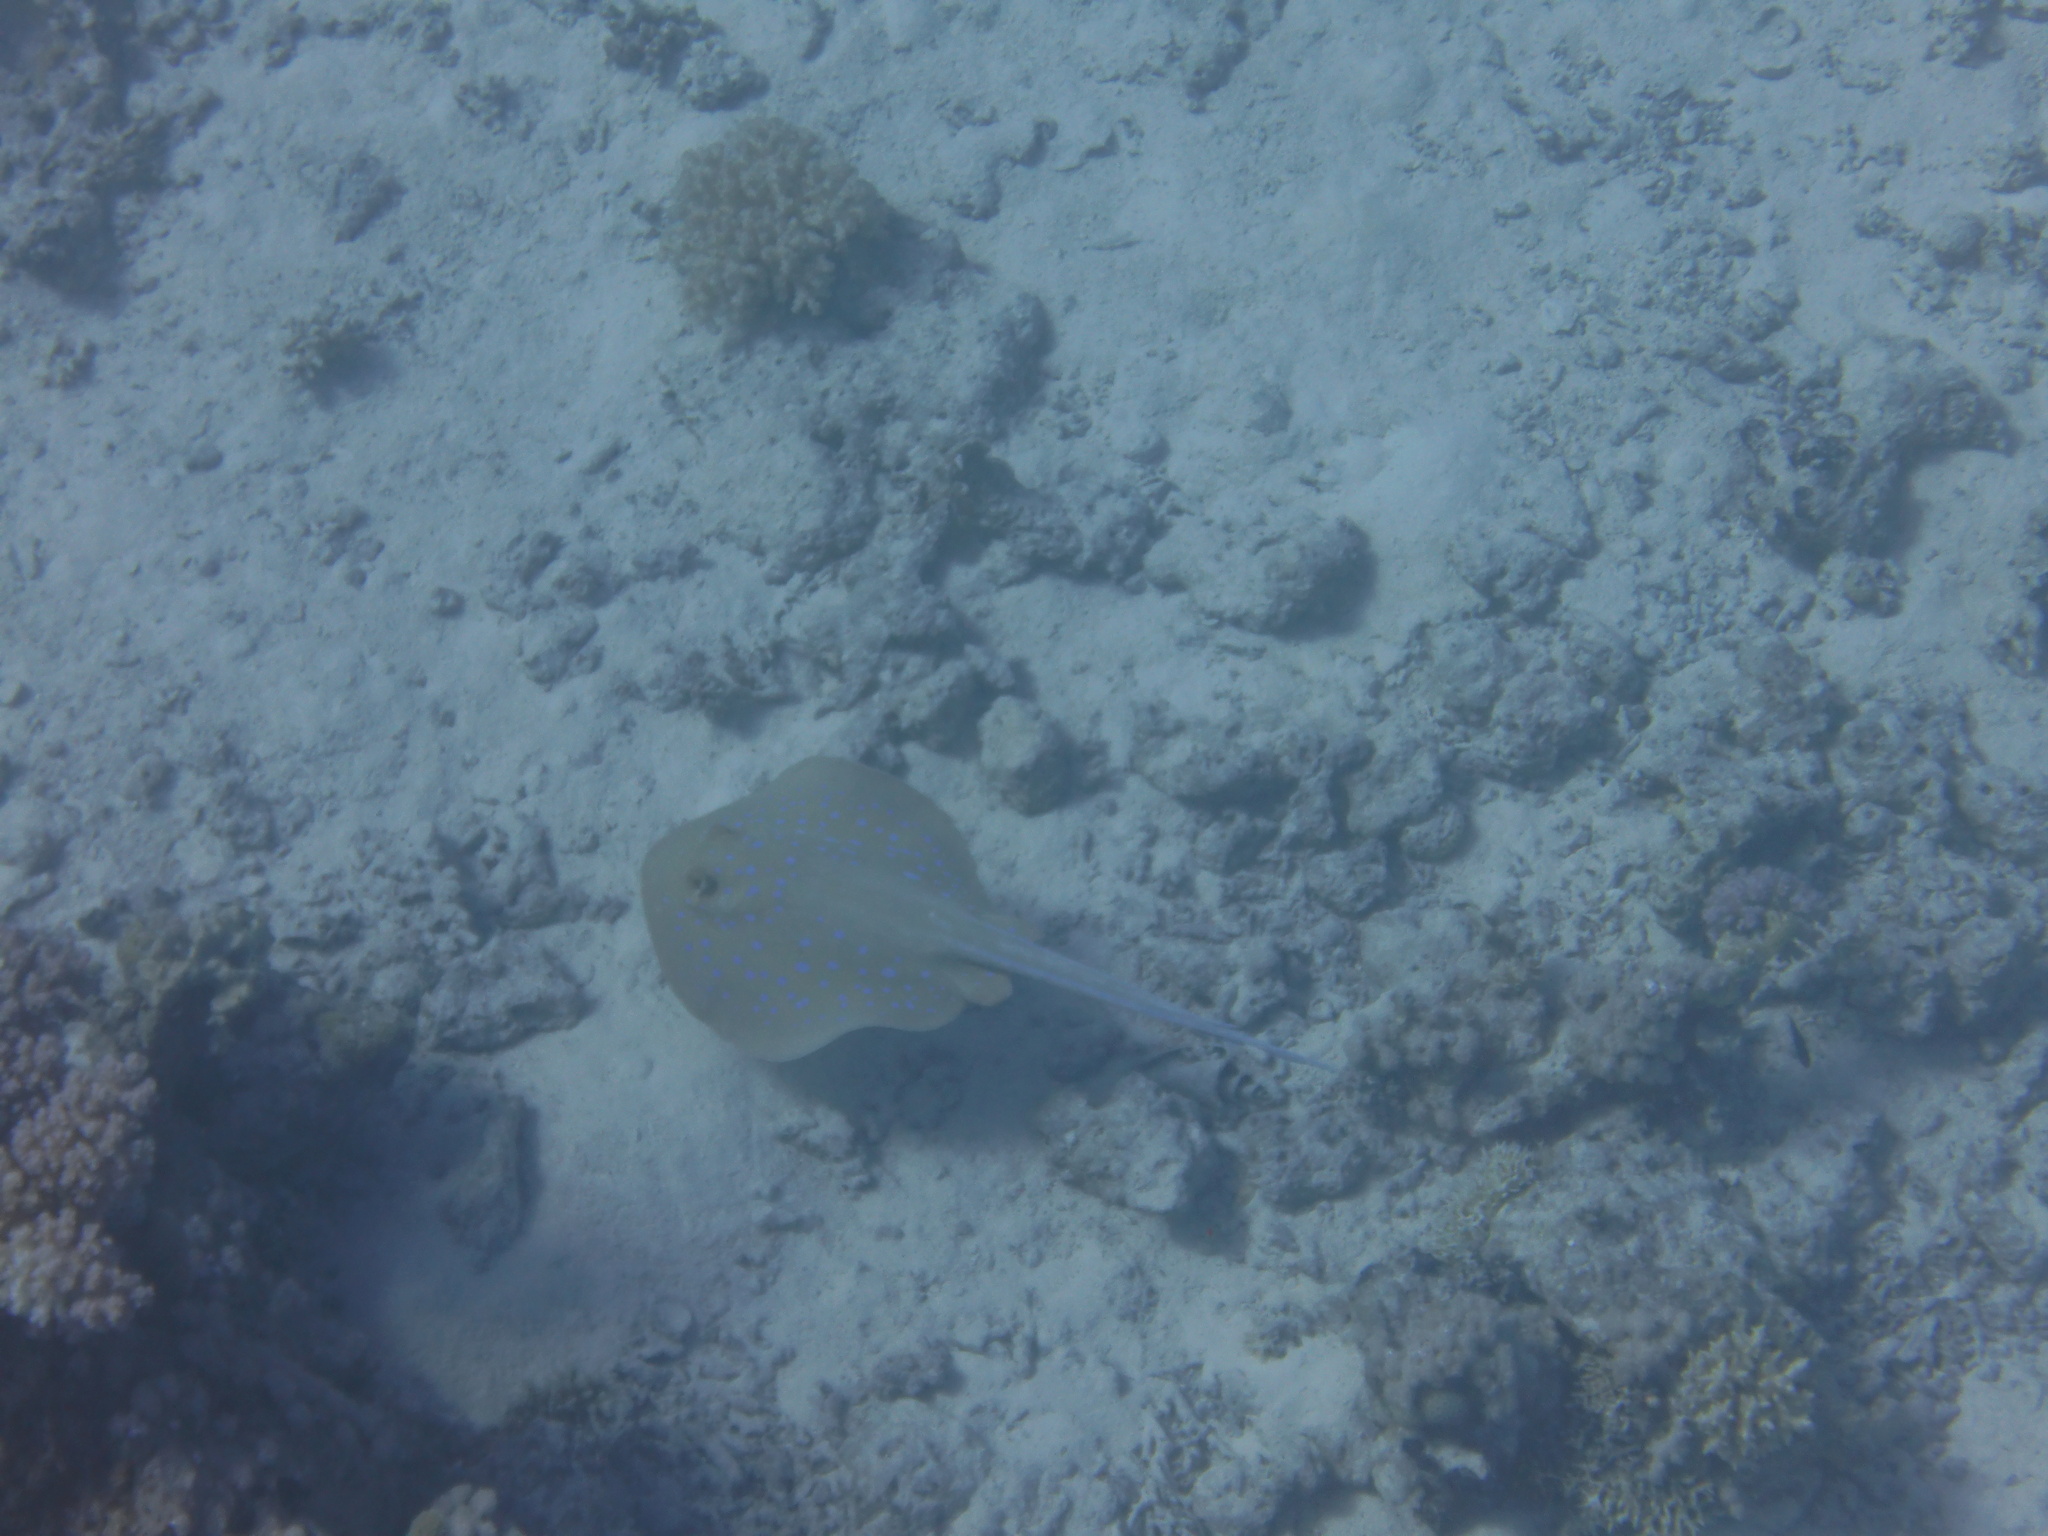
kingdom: Animalia
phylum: Chordata
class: Elasmobranchii
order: Myliobatiformes
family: Dasyatidae
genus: Taeniura
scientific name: Taeniura lymma
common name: Bluespotted ribbontail ray
